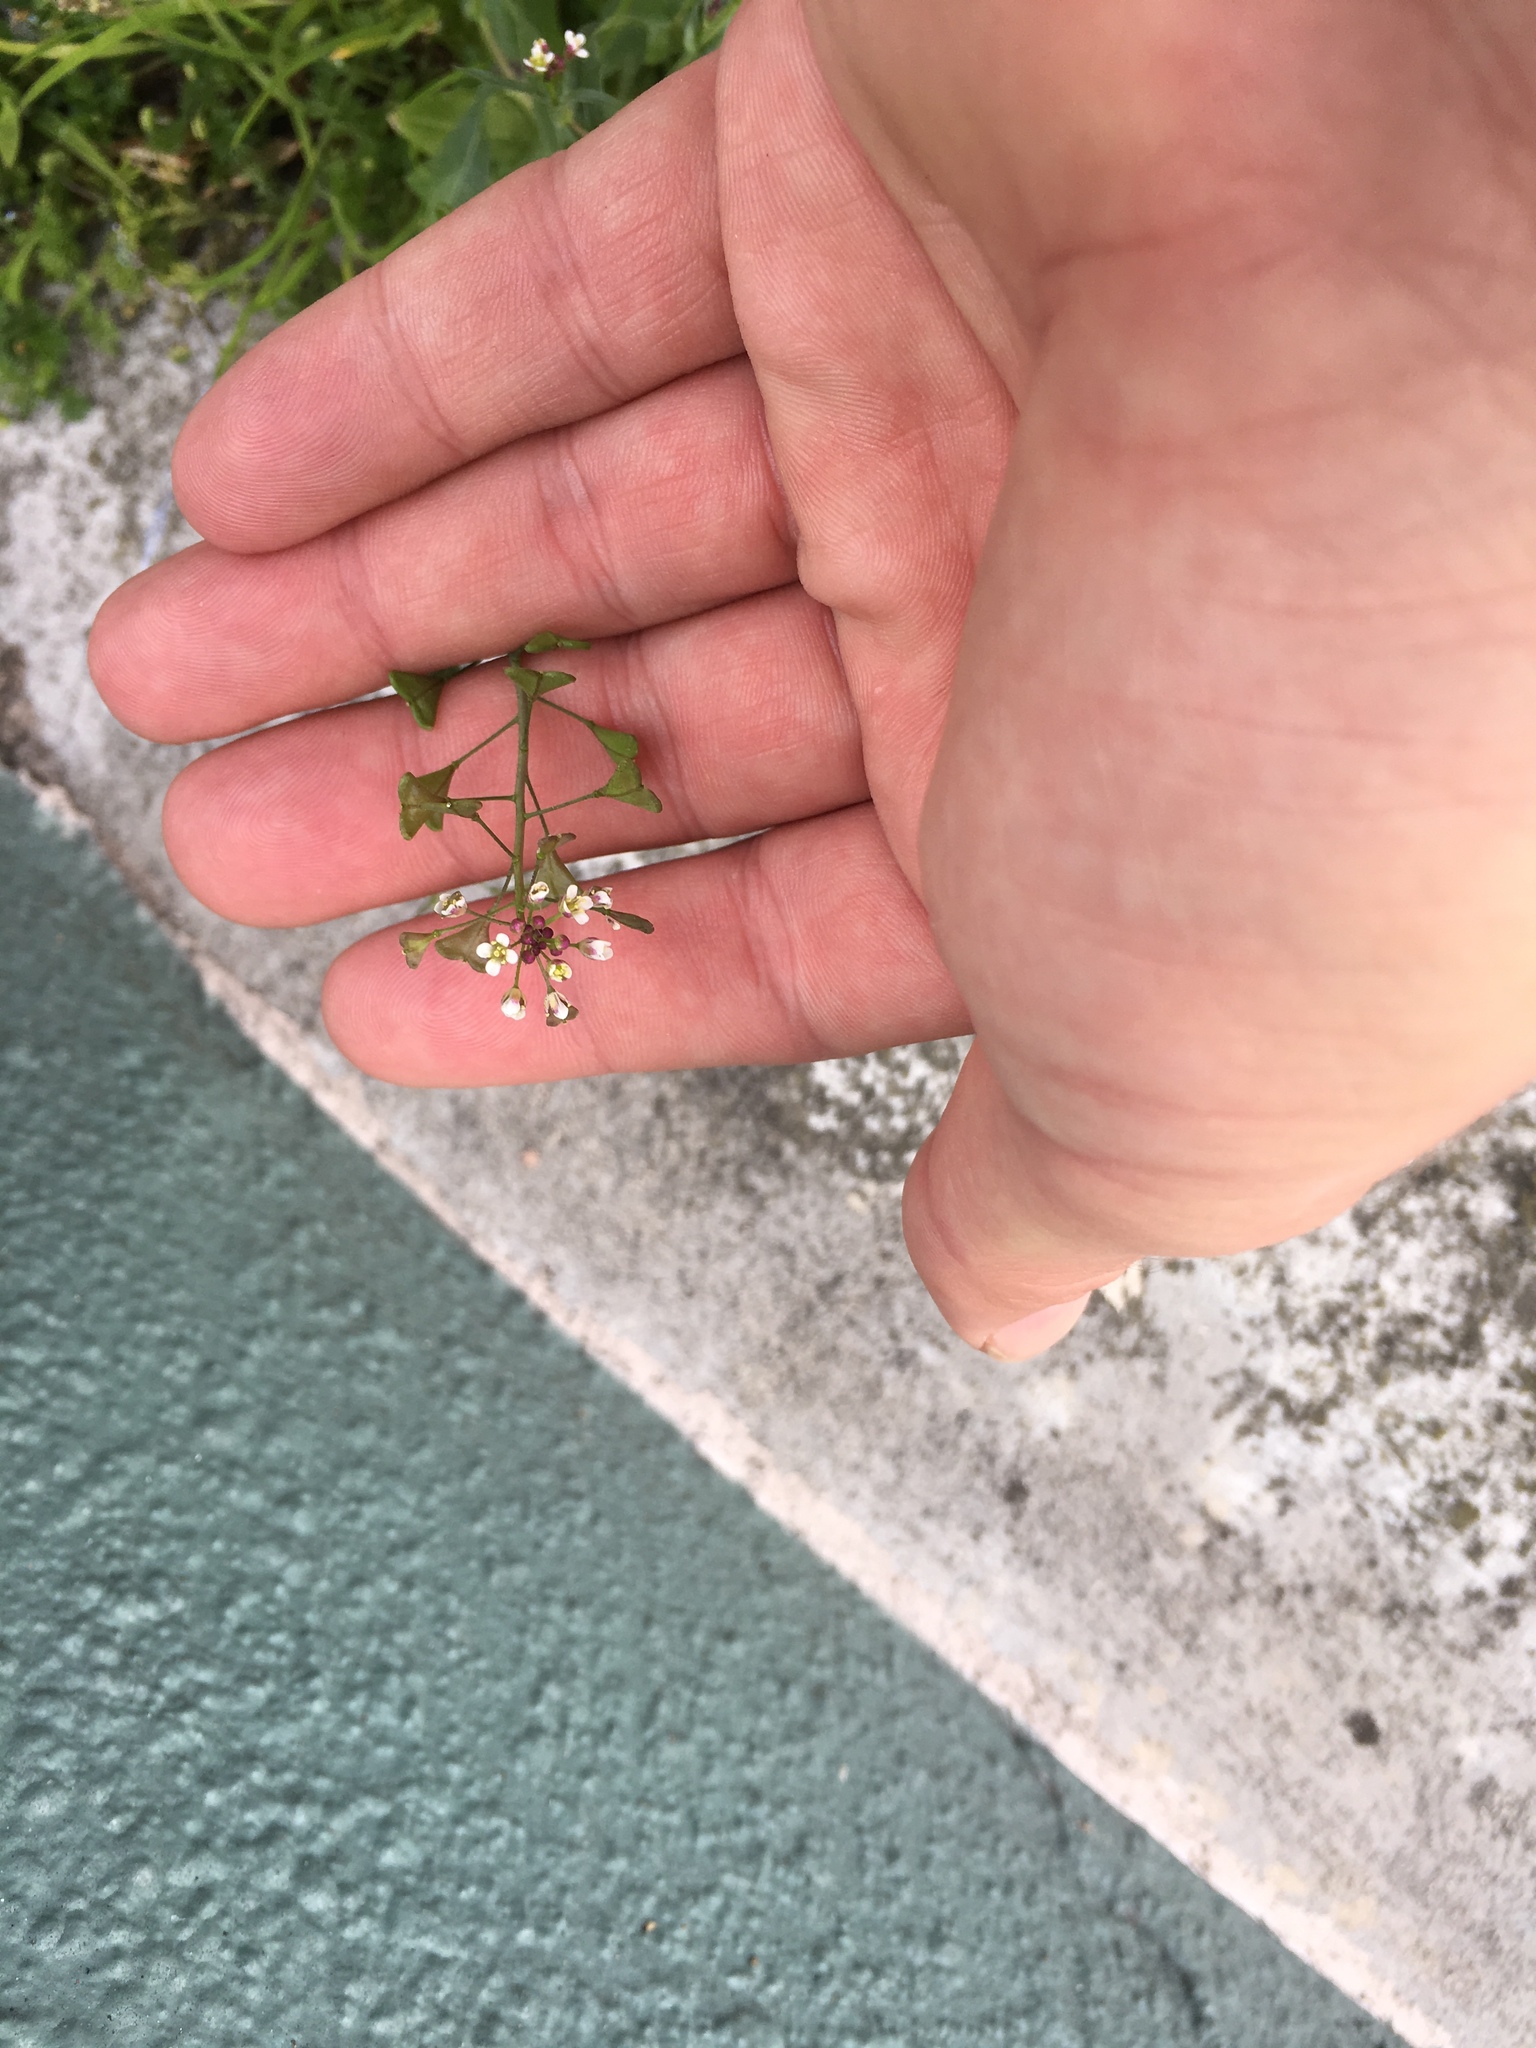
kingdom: Plantae
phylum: Tracheophyta
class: Magnoliopsida
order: Brassicales
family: Brassicaceae
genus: Capsella
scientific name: Capsella bursa-pastoris
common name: Shepherd's purse
